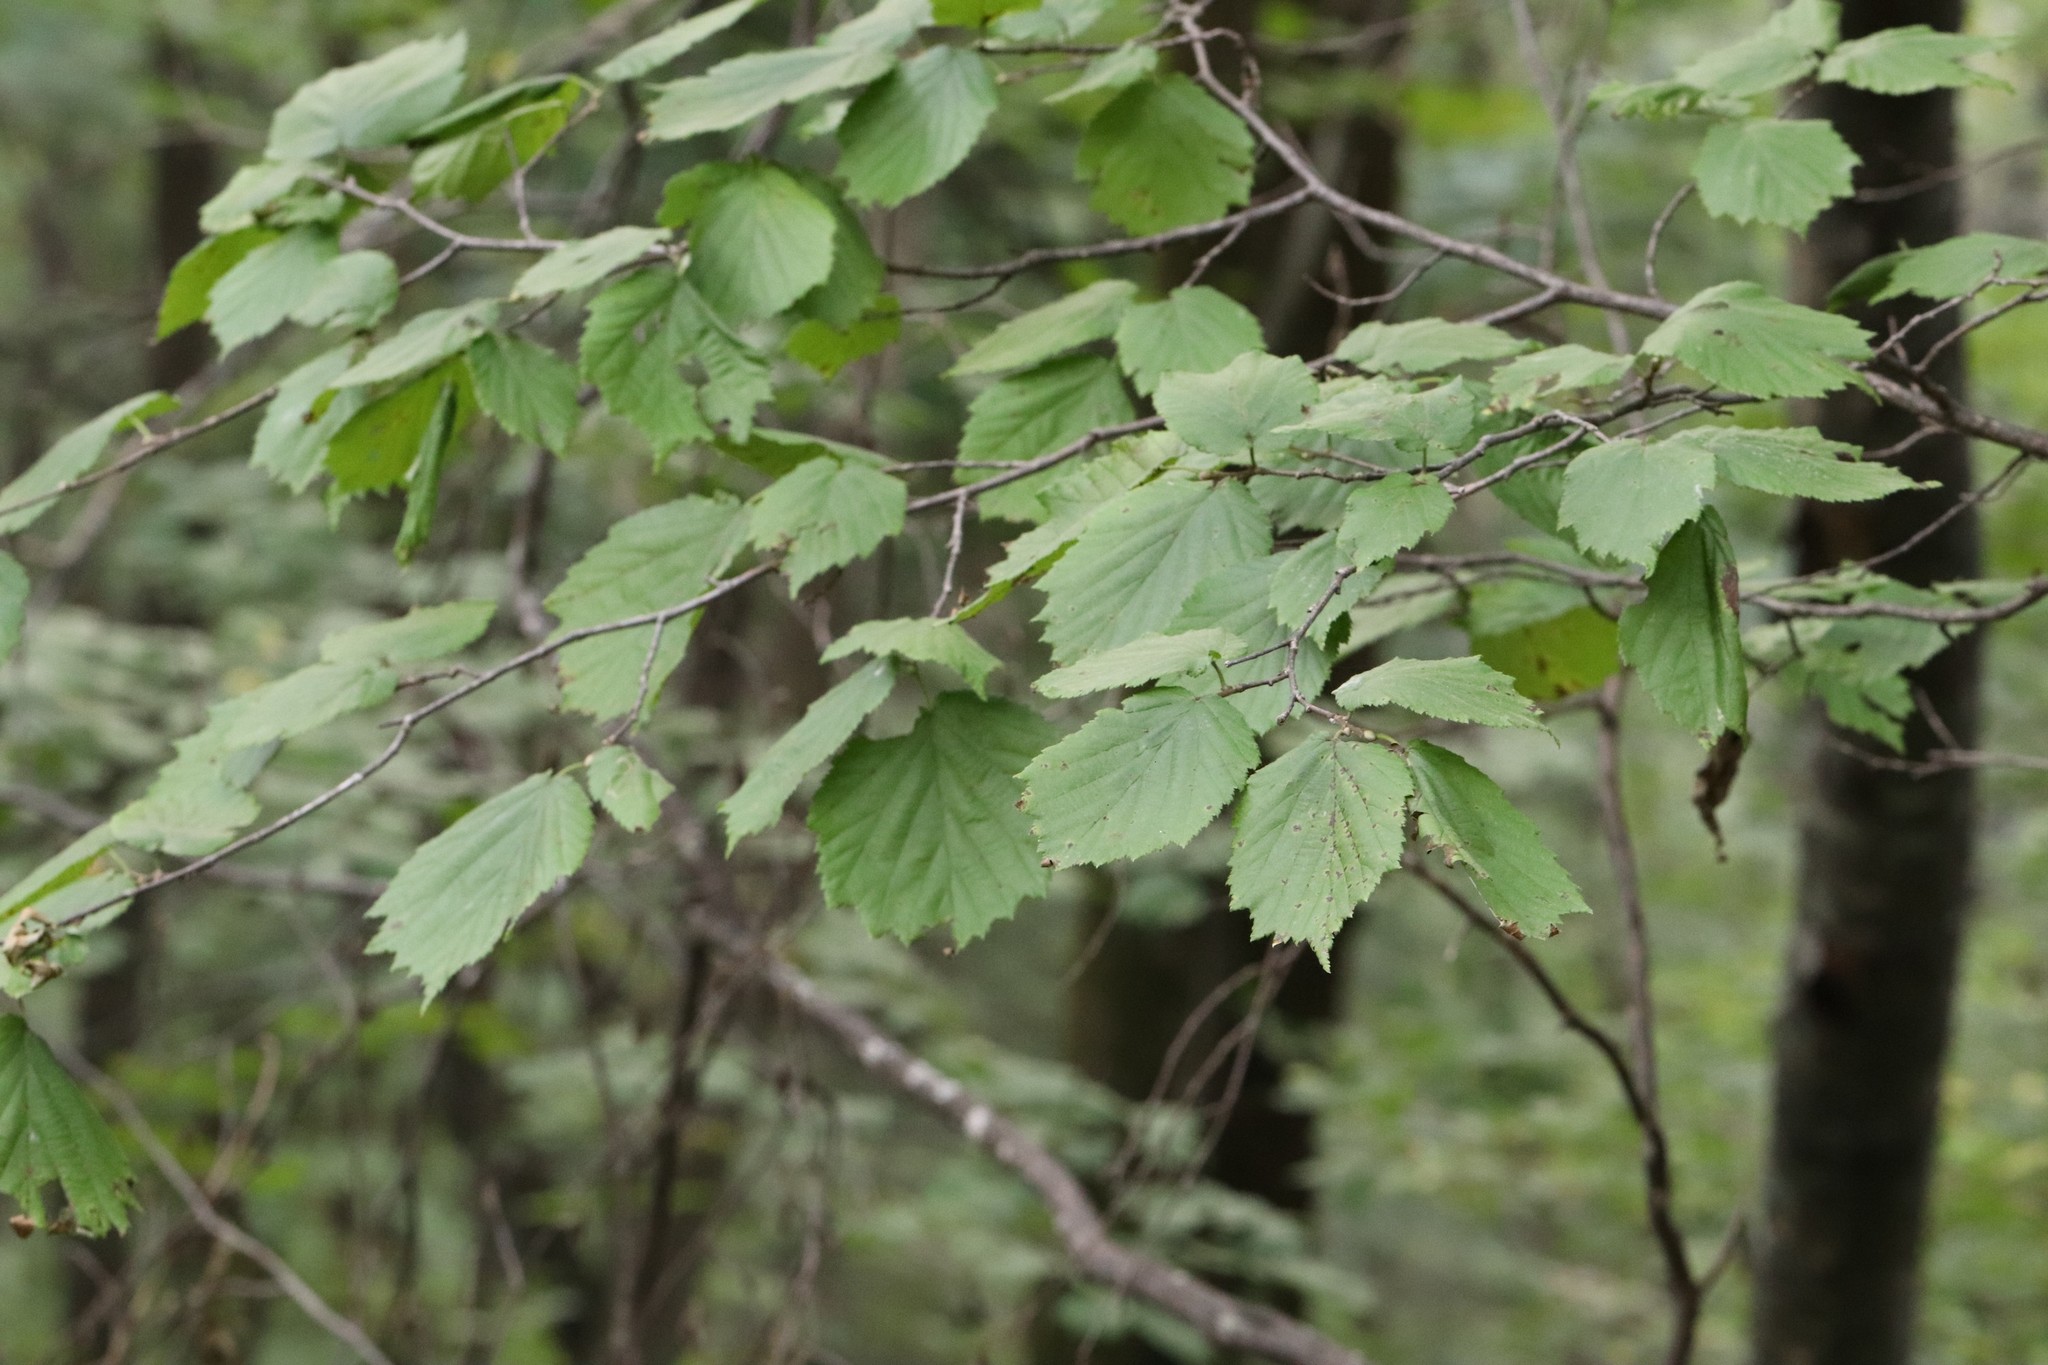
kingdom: Plantae
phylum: Tracheophyta
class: Magnoliopsida
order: Fagales
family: Betulaceae
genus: Corylus
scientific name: Corylus sieboldiana
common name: Japanese hazel
